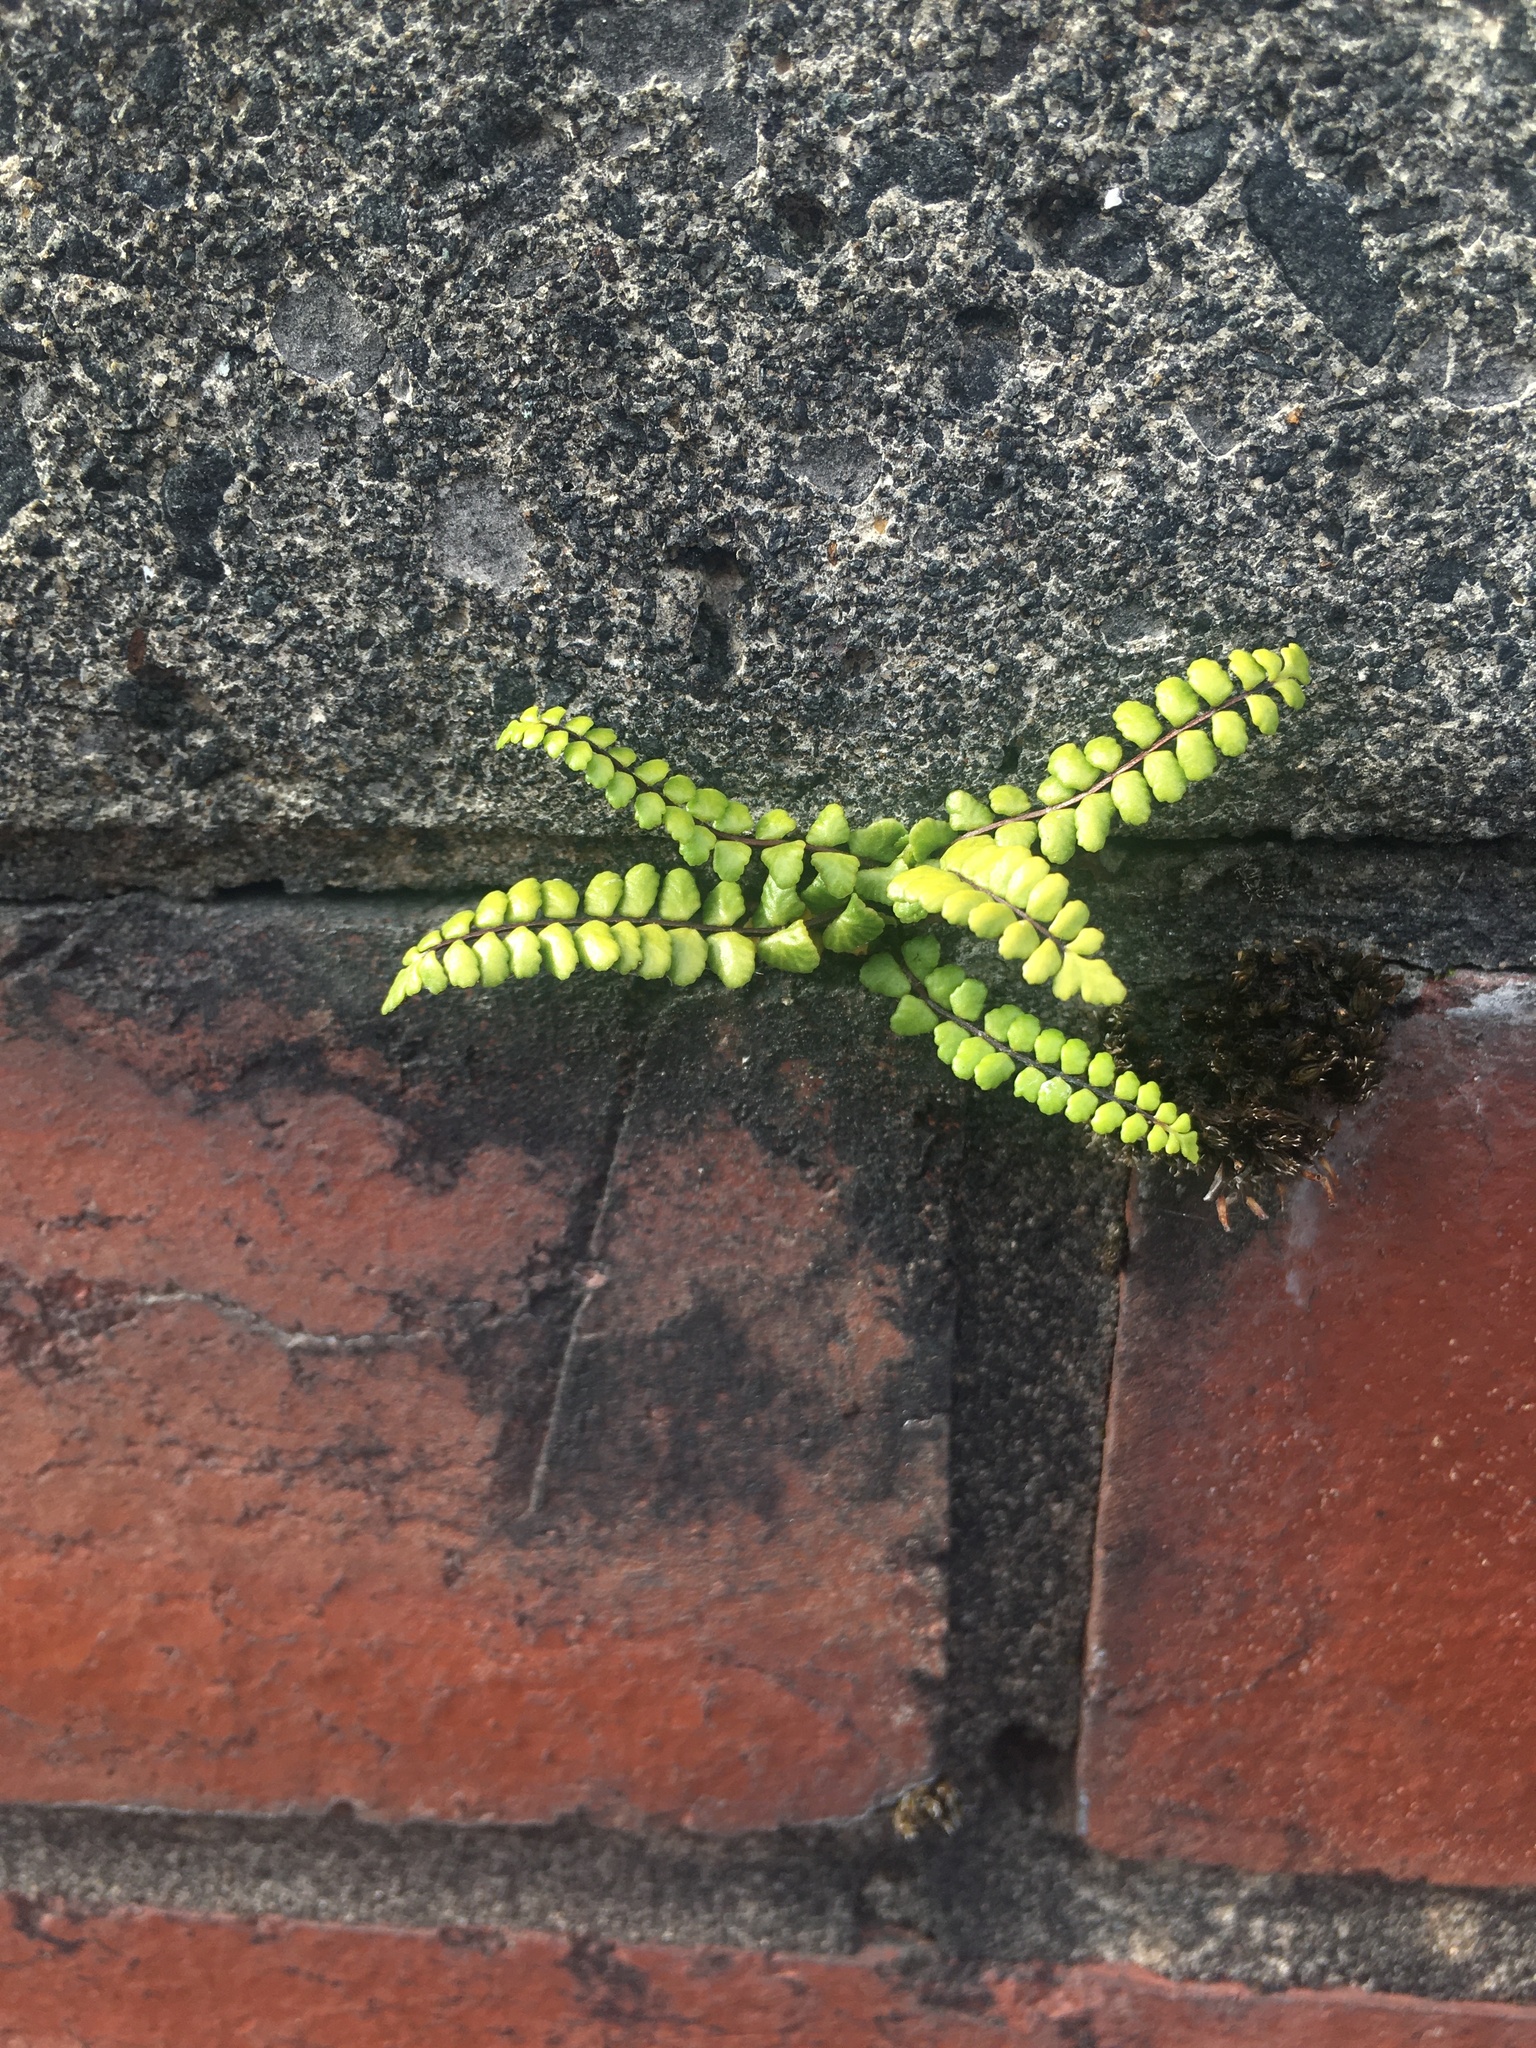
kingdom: Plantae
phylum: Tracheophyta
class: Polypodiopsida
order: Polypodiales
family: Aspleniaceae
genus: Asplenium
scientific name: Asplenium trichomanes
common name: Maidenhair spleenwort
